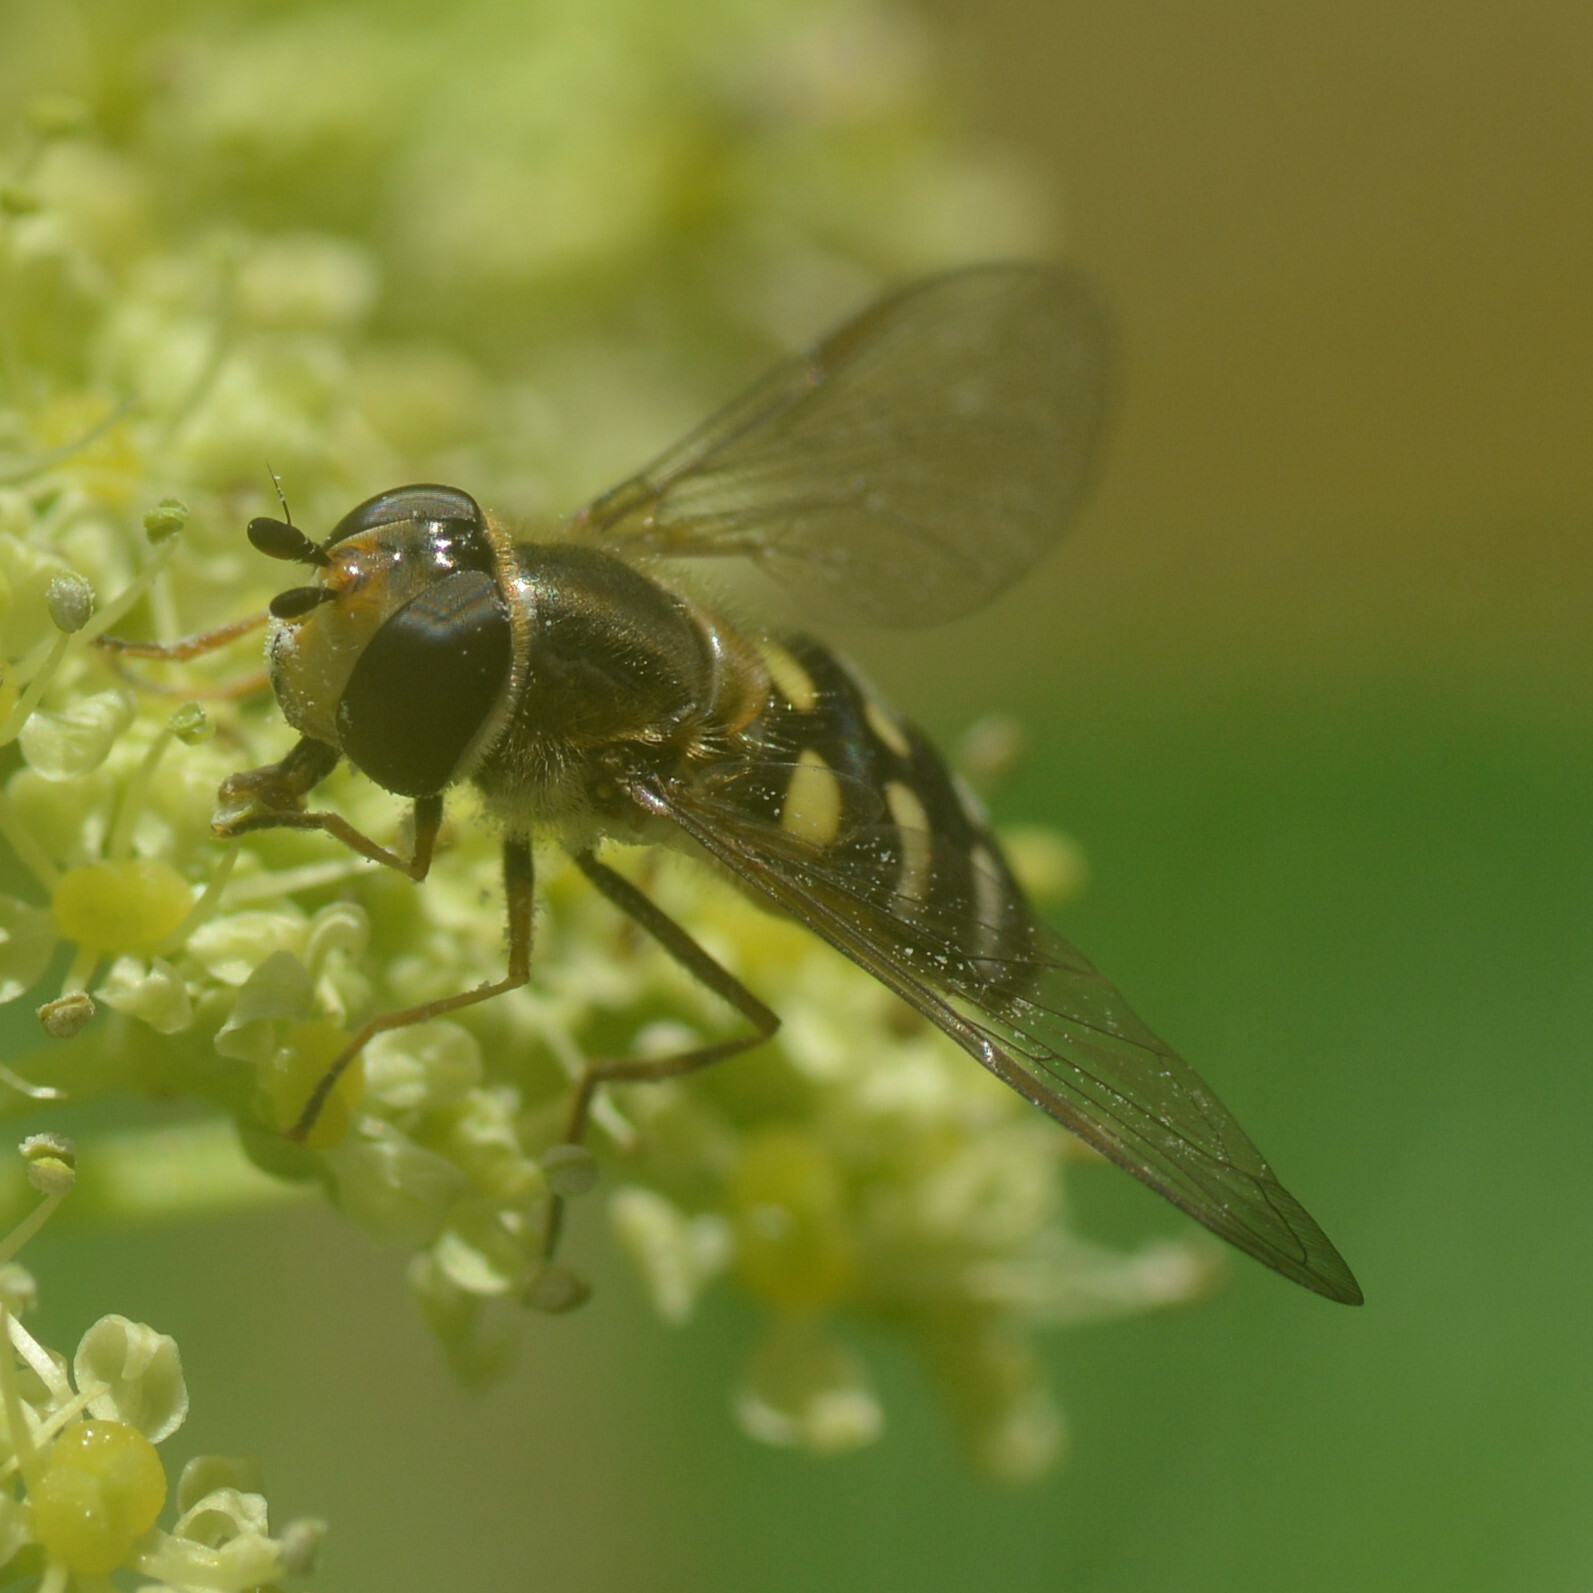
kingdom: Animalia
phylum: Arthropoda
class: Insecta
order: Diptera
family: Syrphidae
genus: Eupeodes
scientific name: Eupeodes luniger
